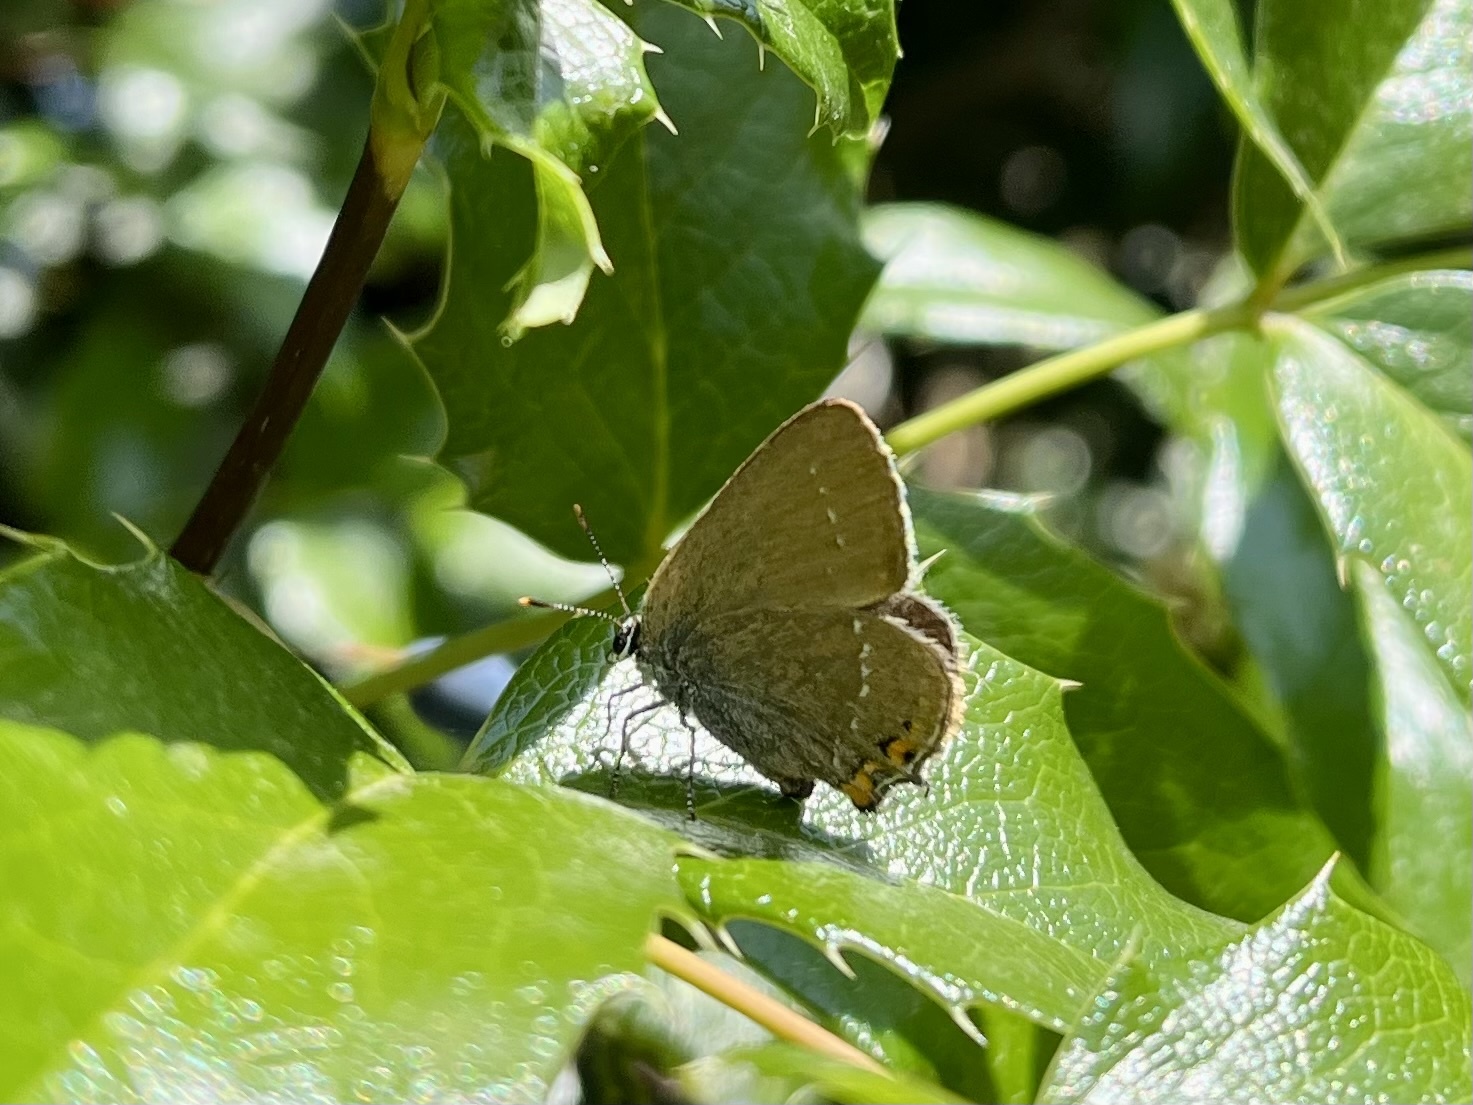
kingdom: Animalia
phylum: Arthropoda
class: Insecta
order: Lepidoptera
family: Lycaenidae
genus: Strymon
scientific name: Strymon acaciae
